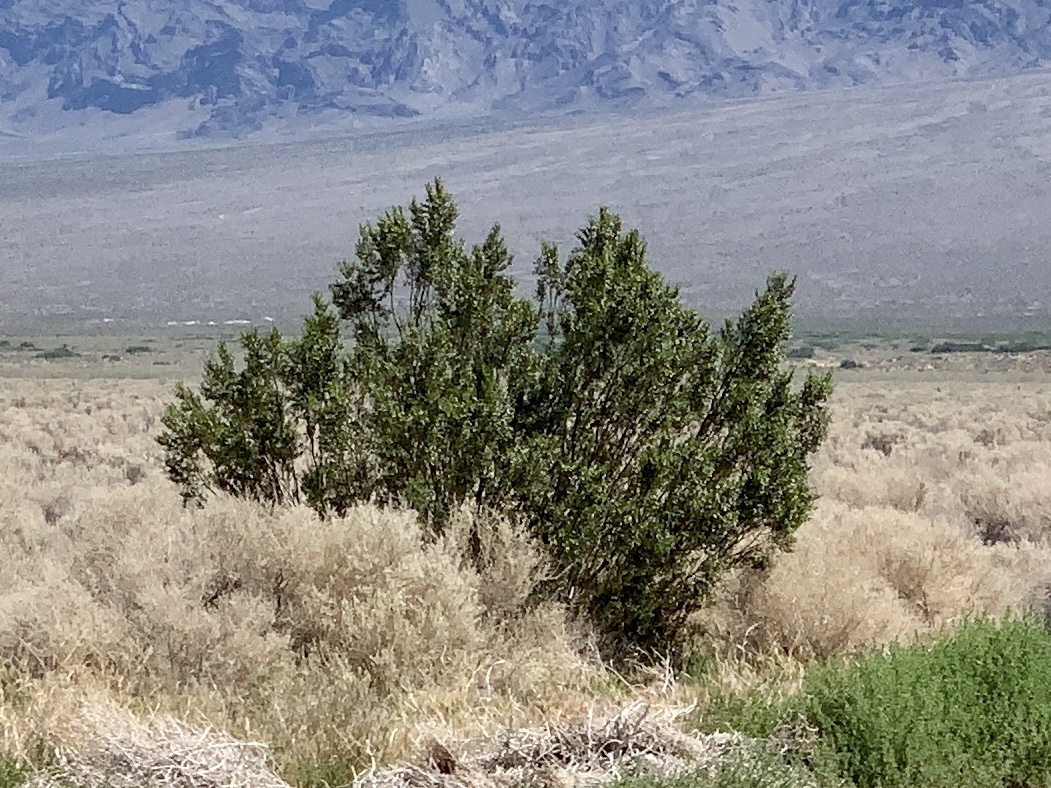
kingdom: Plantae
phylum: Tracheophyta
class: Magnoliopsida
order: Zygophyllales
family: Zygophyllaceae
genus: Larrea
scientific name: Larrea tridentata
